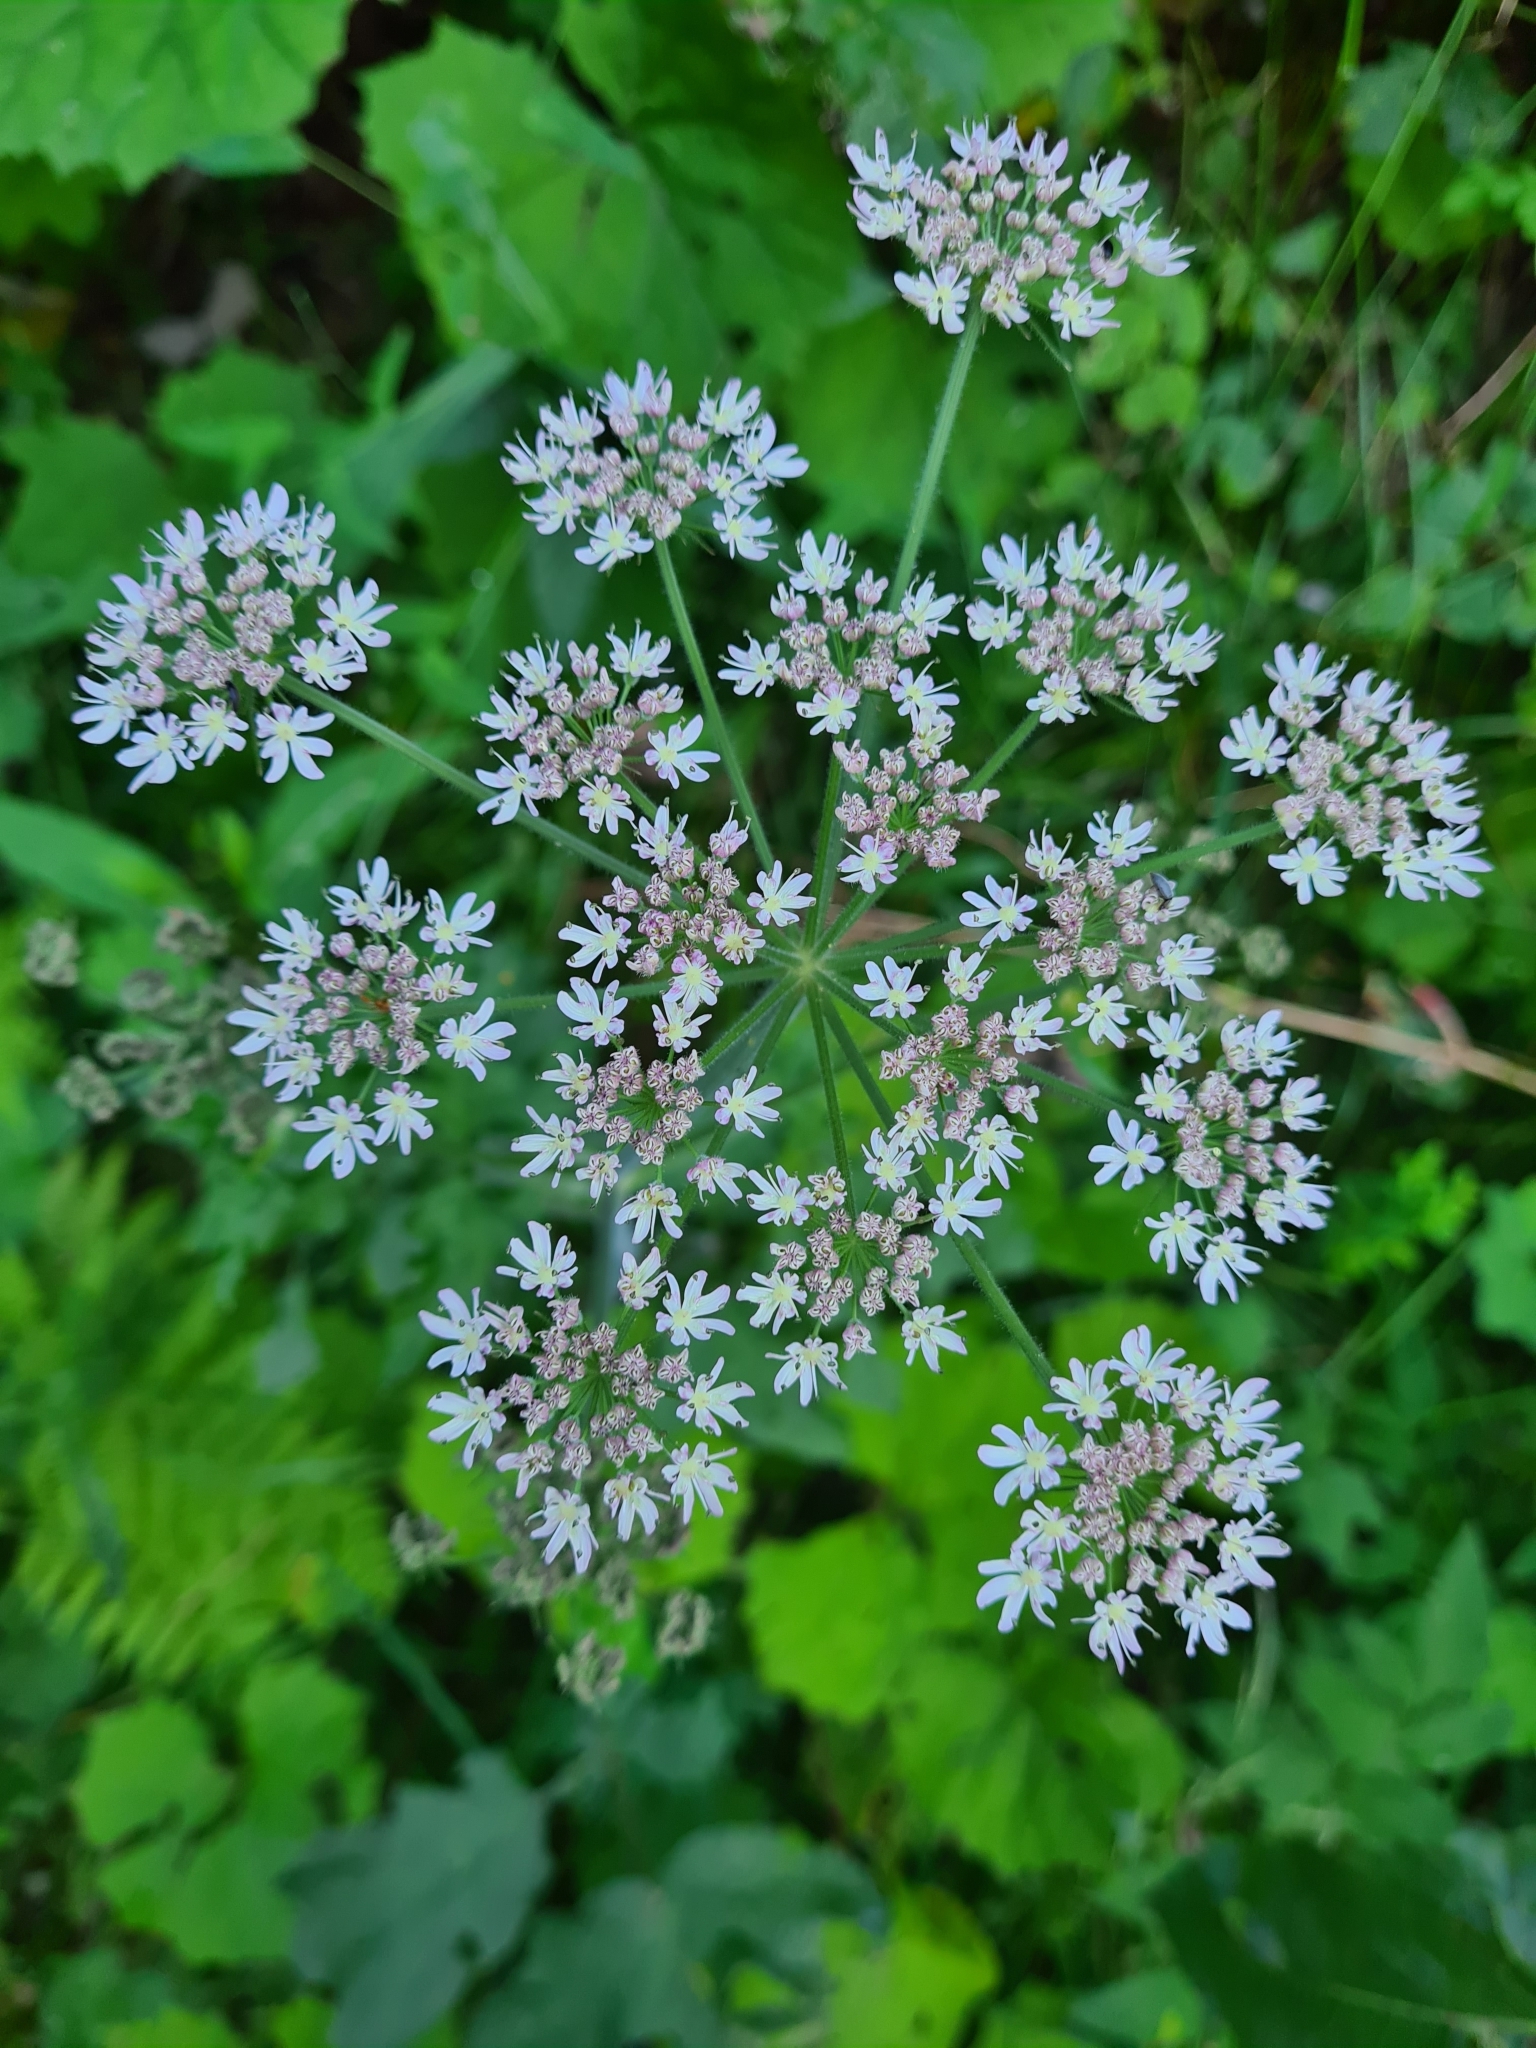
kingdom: Plantae
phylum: Tracheophyta
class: Magnoliopsida
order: Apiales
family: Apiaceae
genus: Heracleum
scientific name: Heracleum sphondylium
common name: Hogweed
